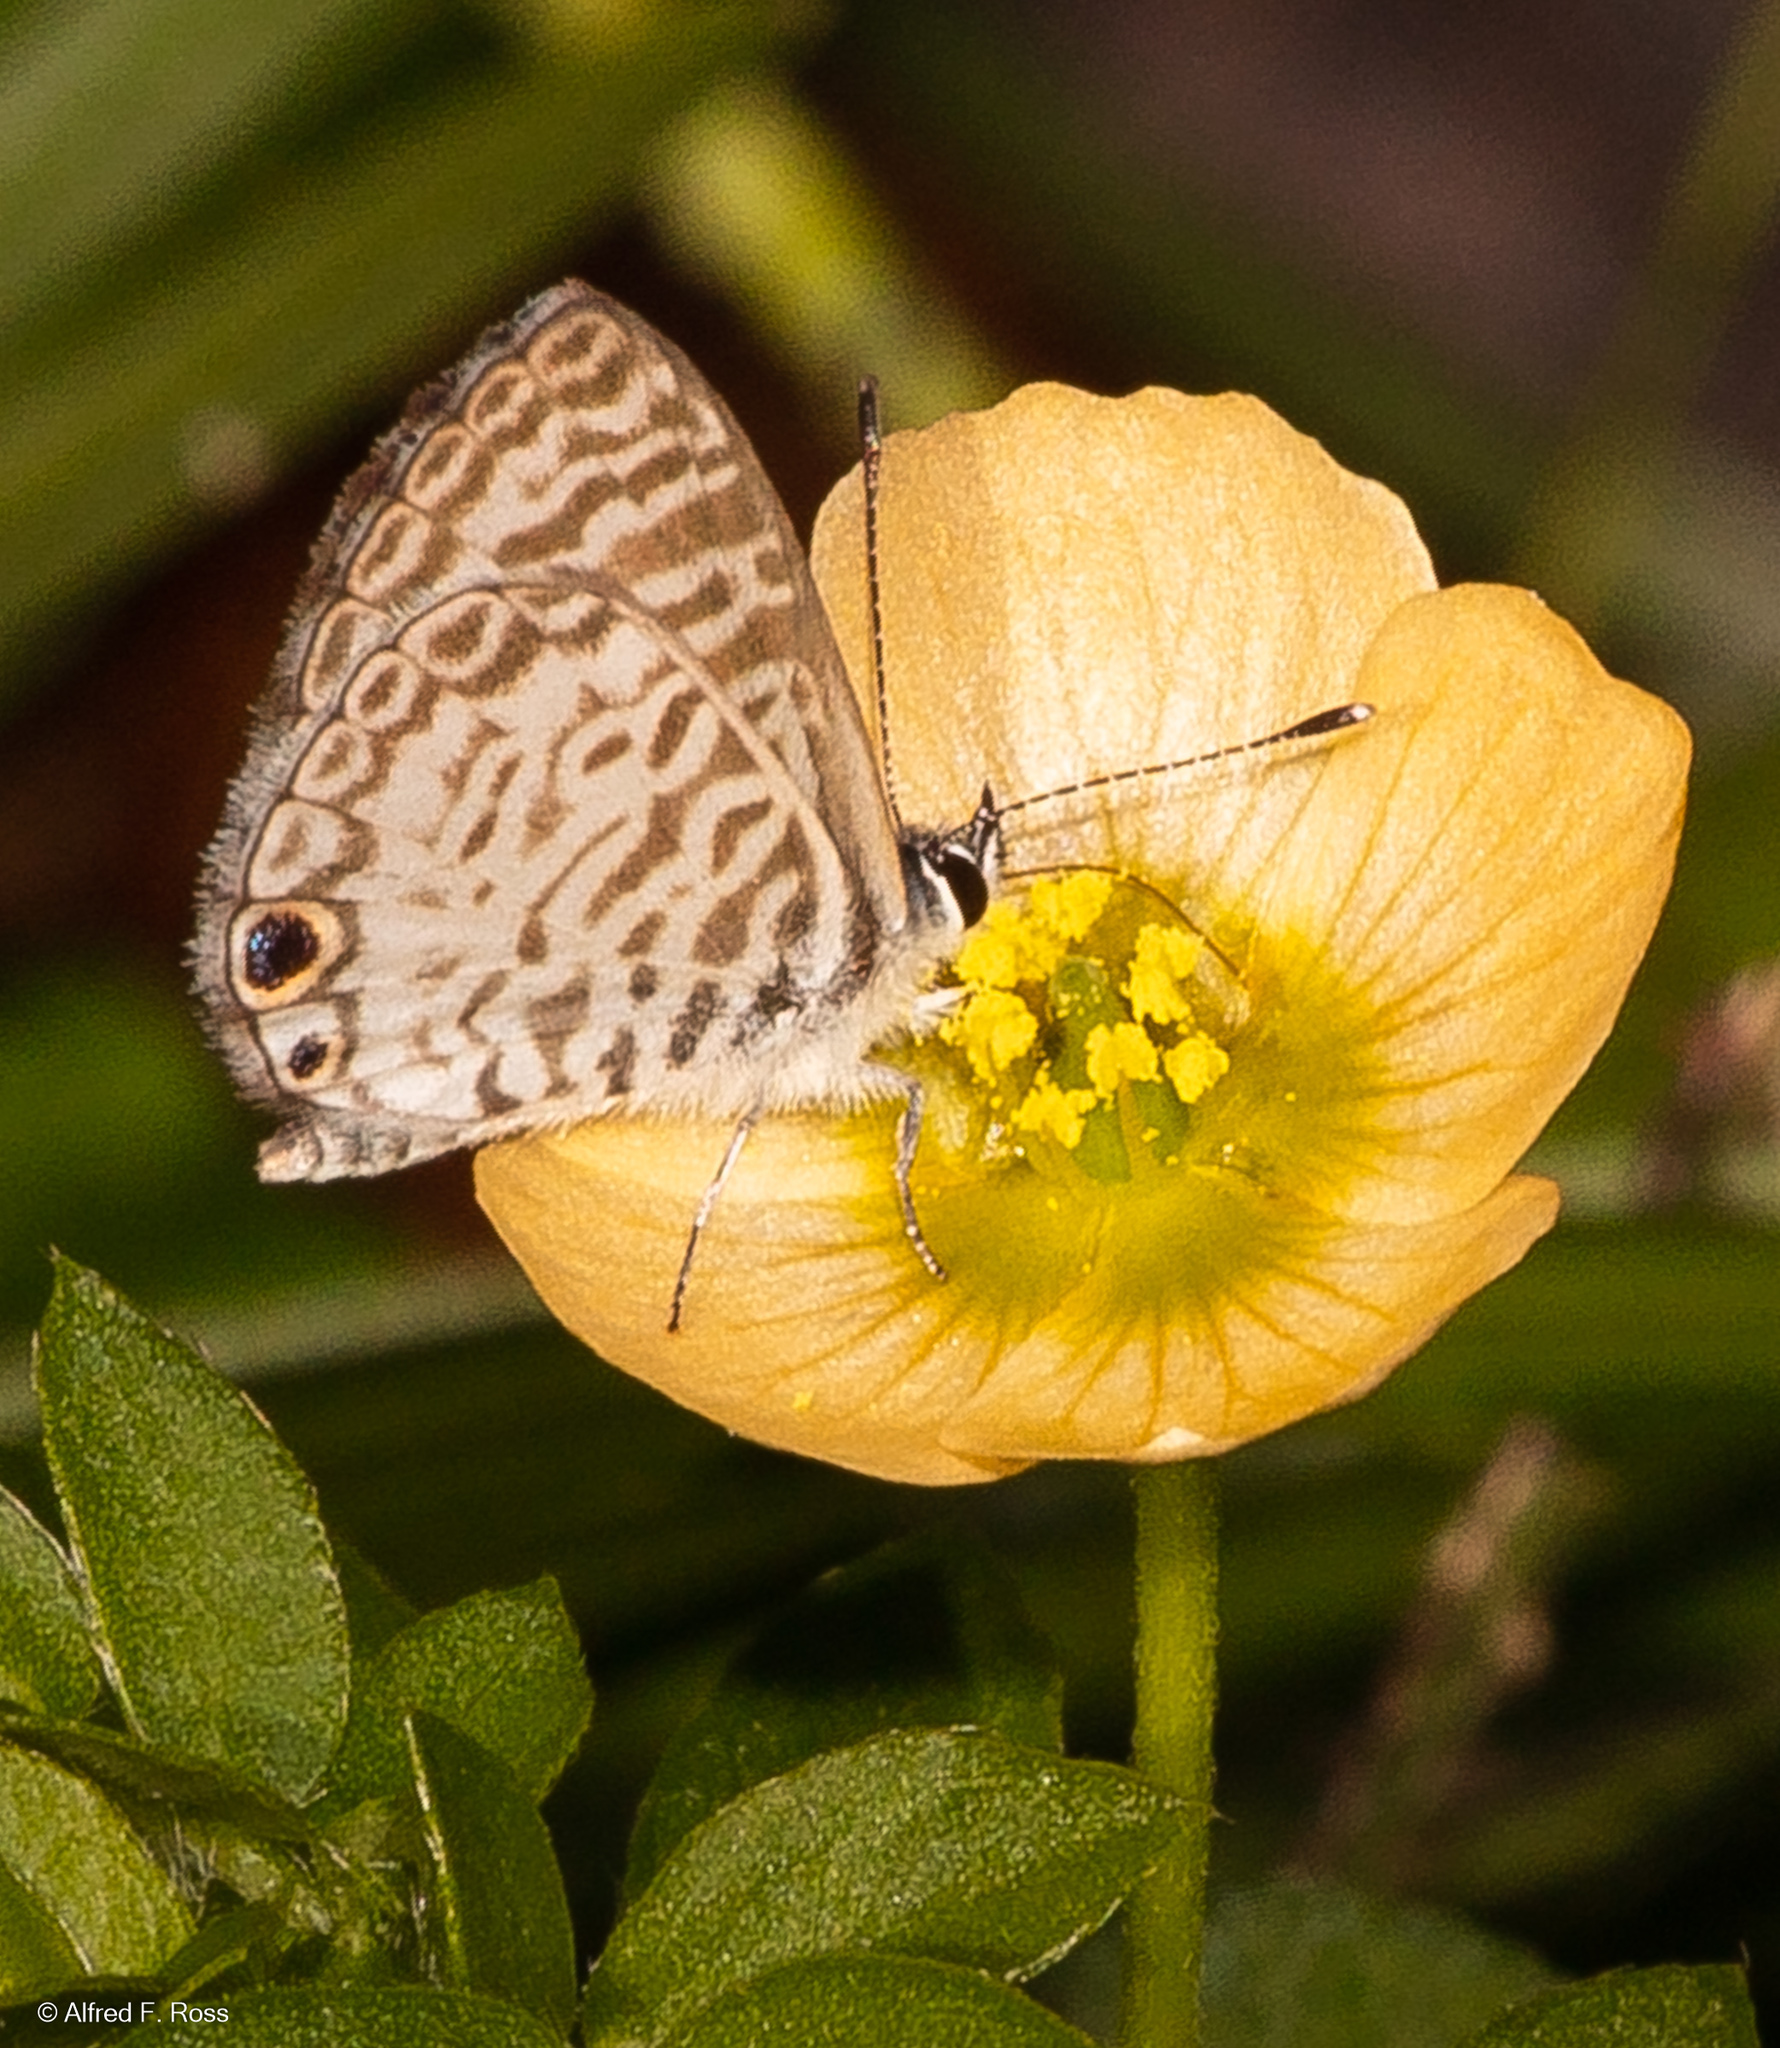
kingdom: Animalia
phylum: Arthropoda
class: Insecta
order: Lepidoptera
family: Lycaenidae
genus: Leptotes
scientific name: Leptotes cassius
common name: Cassius blue
